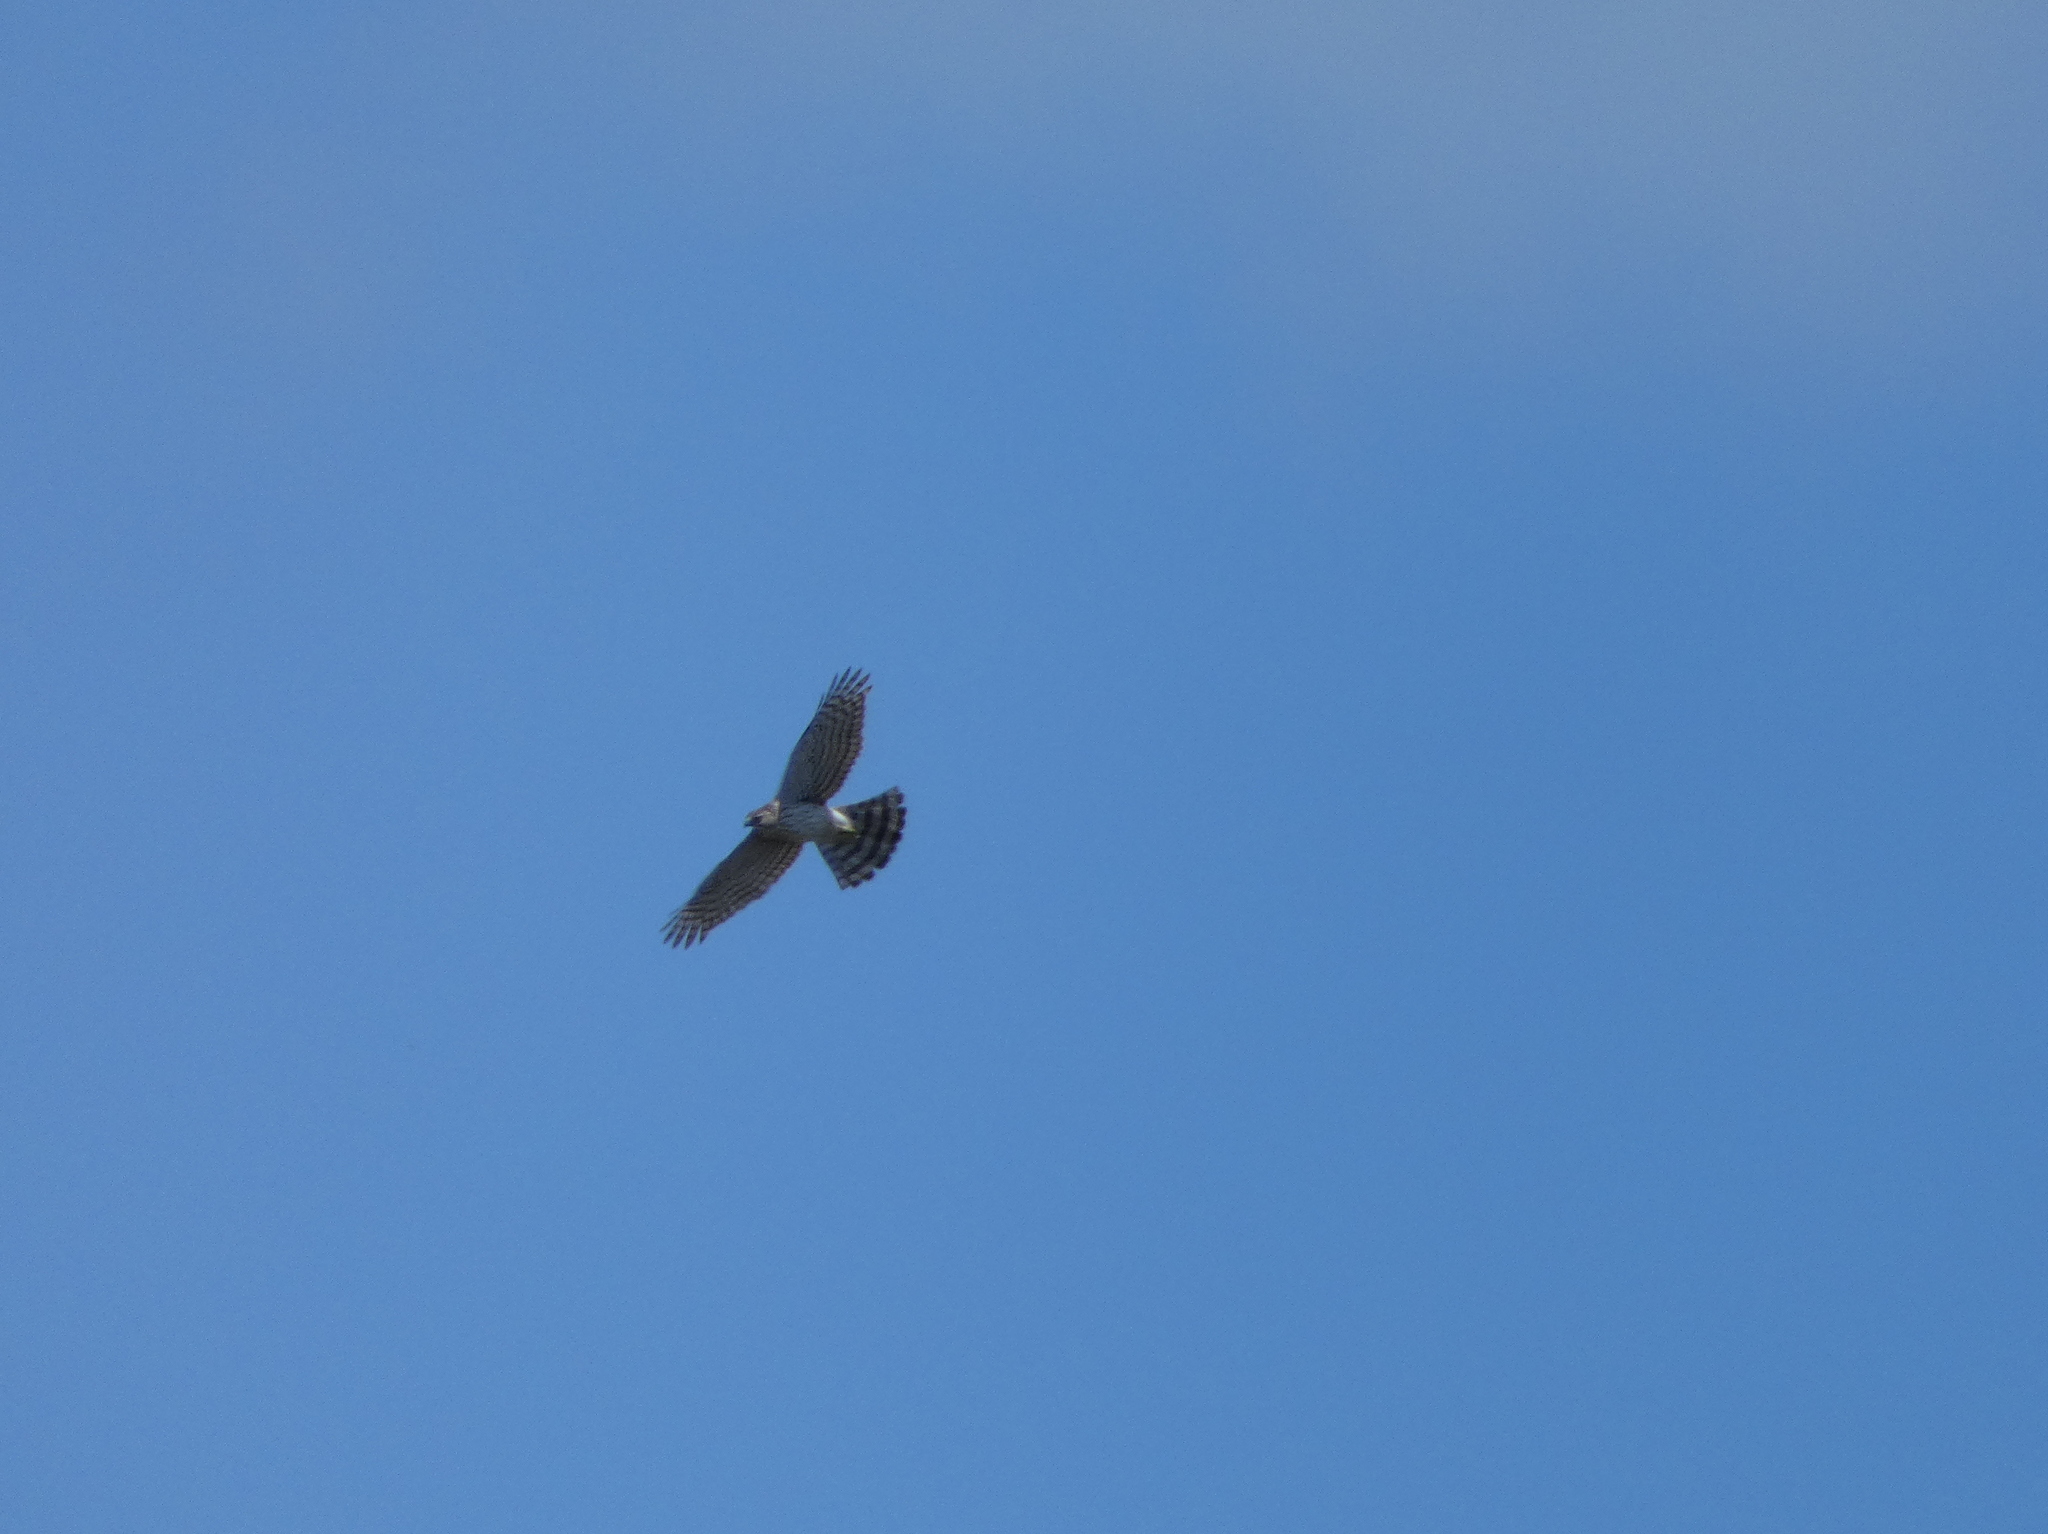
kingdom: Animalia
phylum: Chordata
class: Aves
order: Accipitriformes
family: Accipitridae
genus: Accipiter
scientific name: Accipiter cooperii
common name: Cooper's hawk
